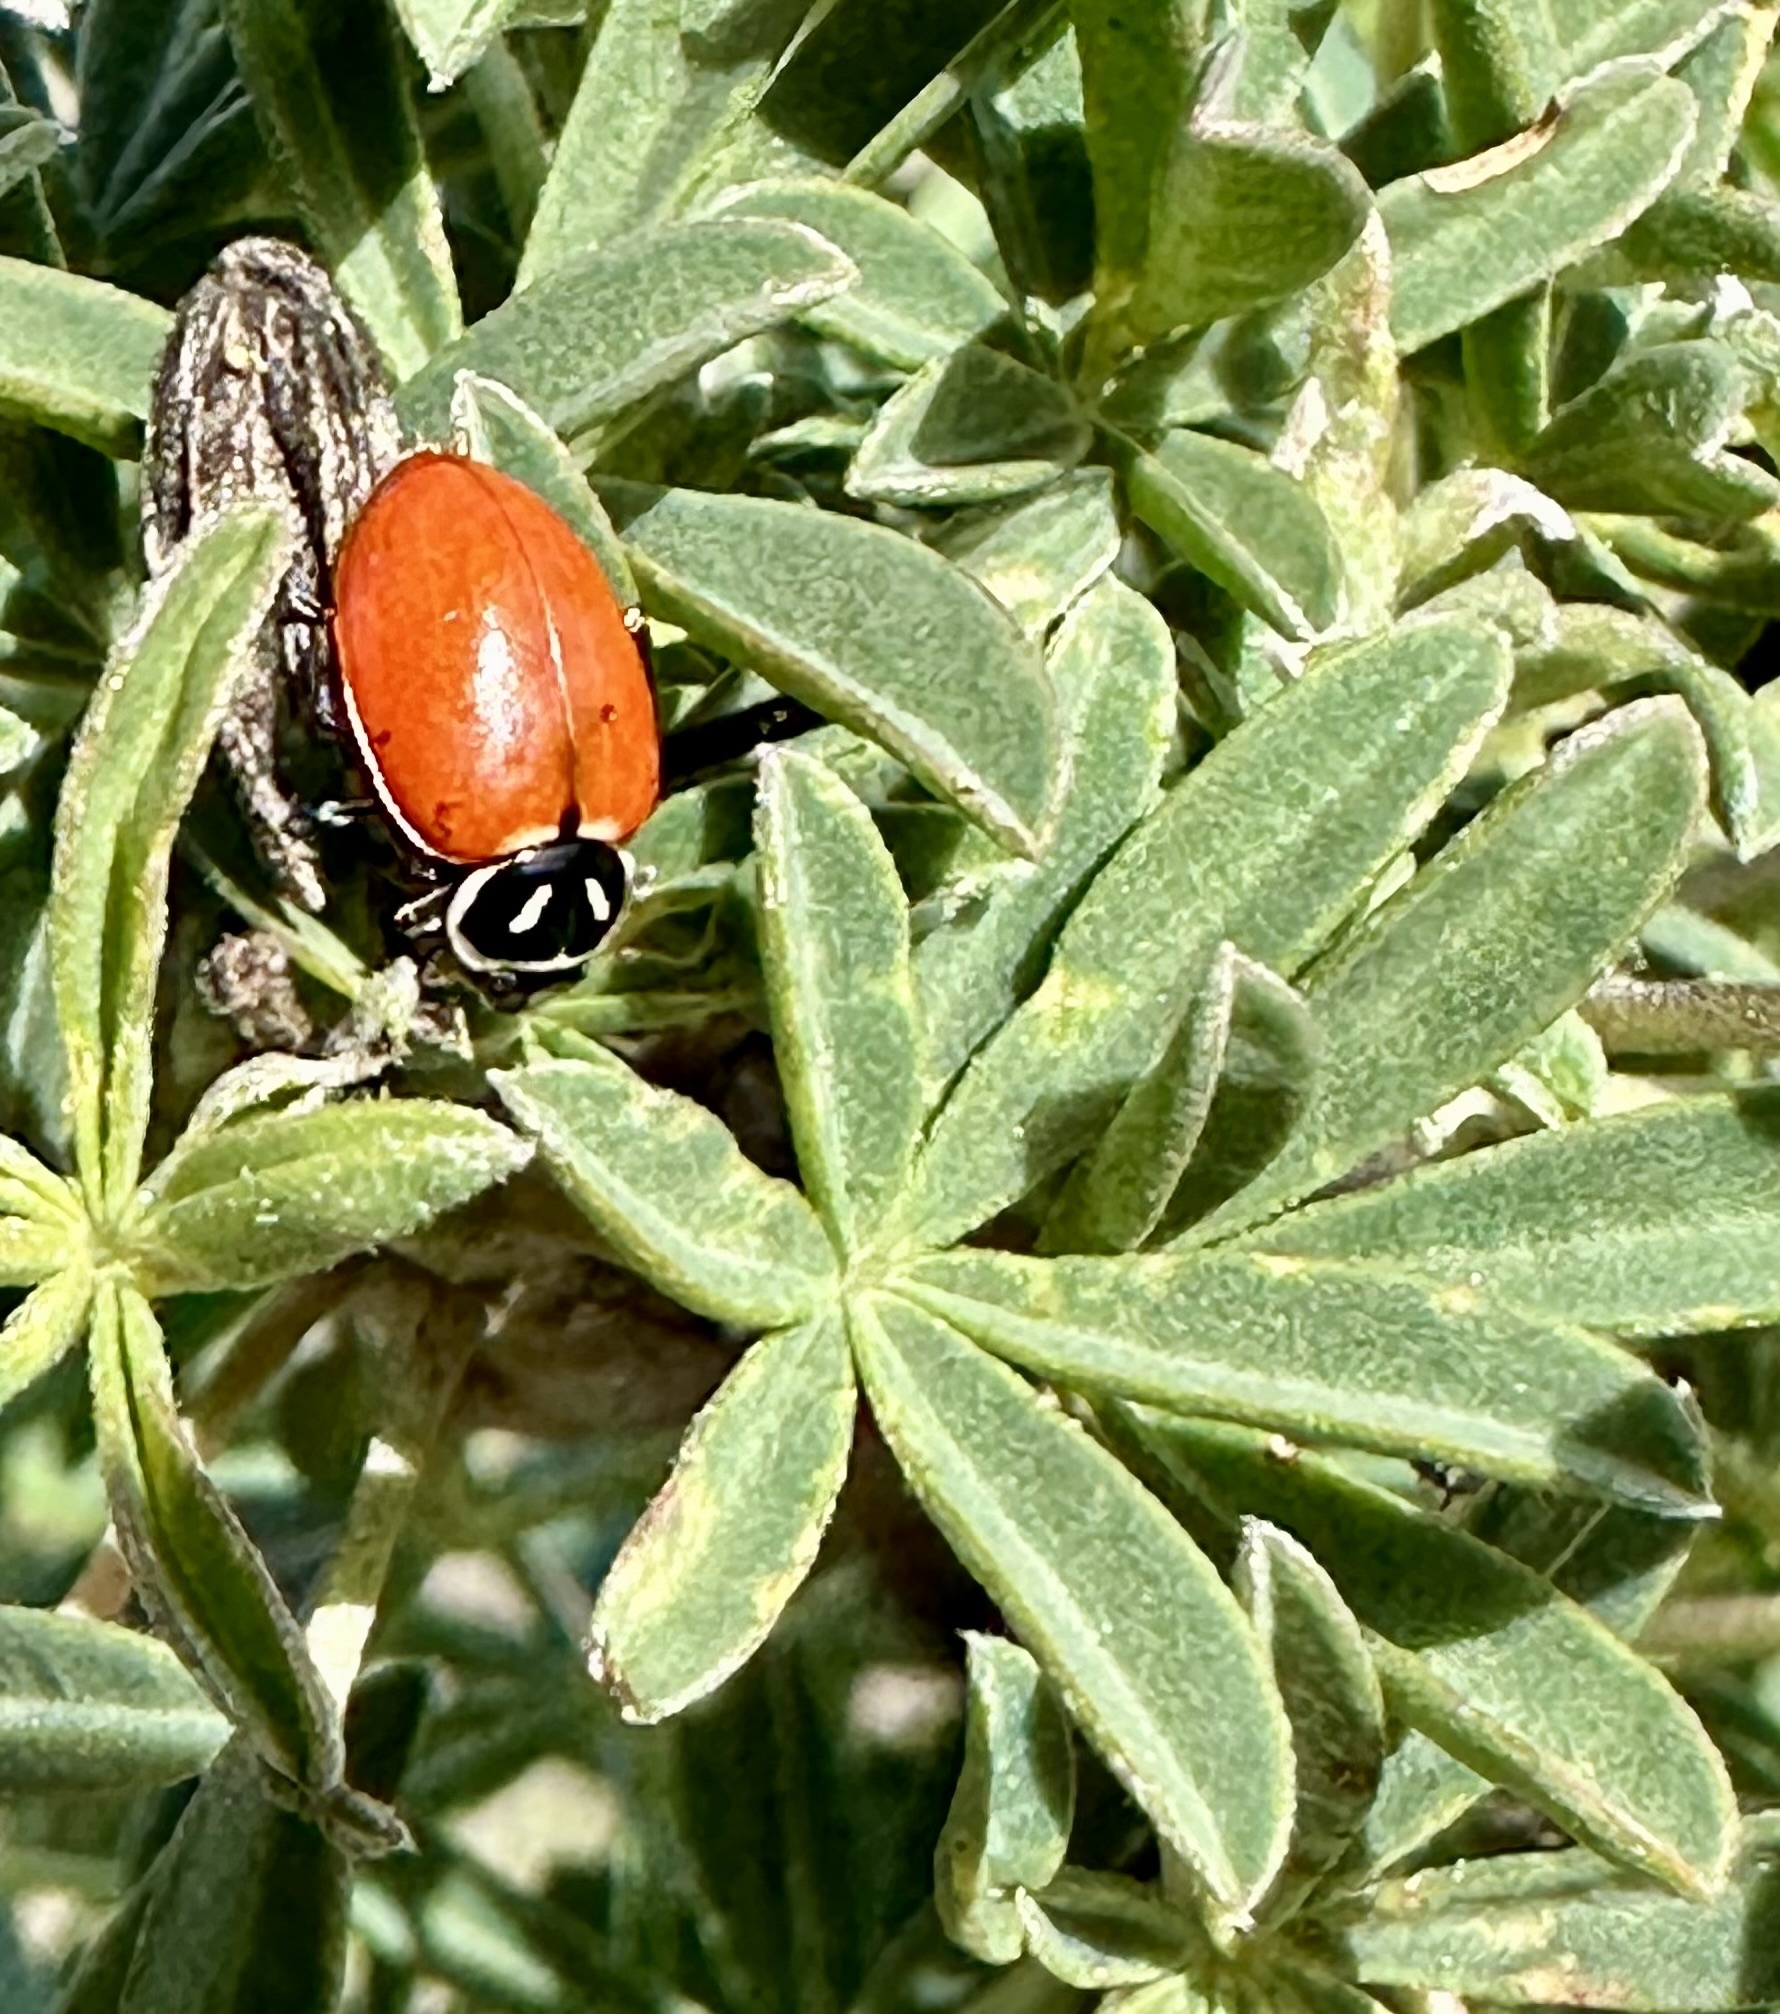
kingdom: Animalia
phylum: Arthropoda
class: Insecta
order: Coleoptera
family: Coccinellidae
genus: Hippodamia
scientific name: Hippodamia convergens
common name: Convergent lady beetle
